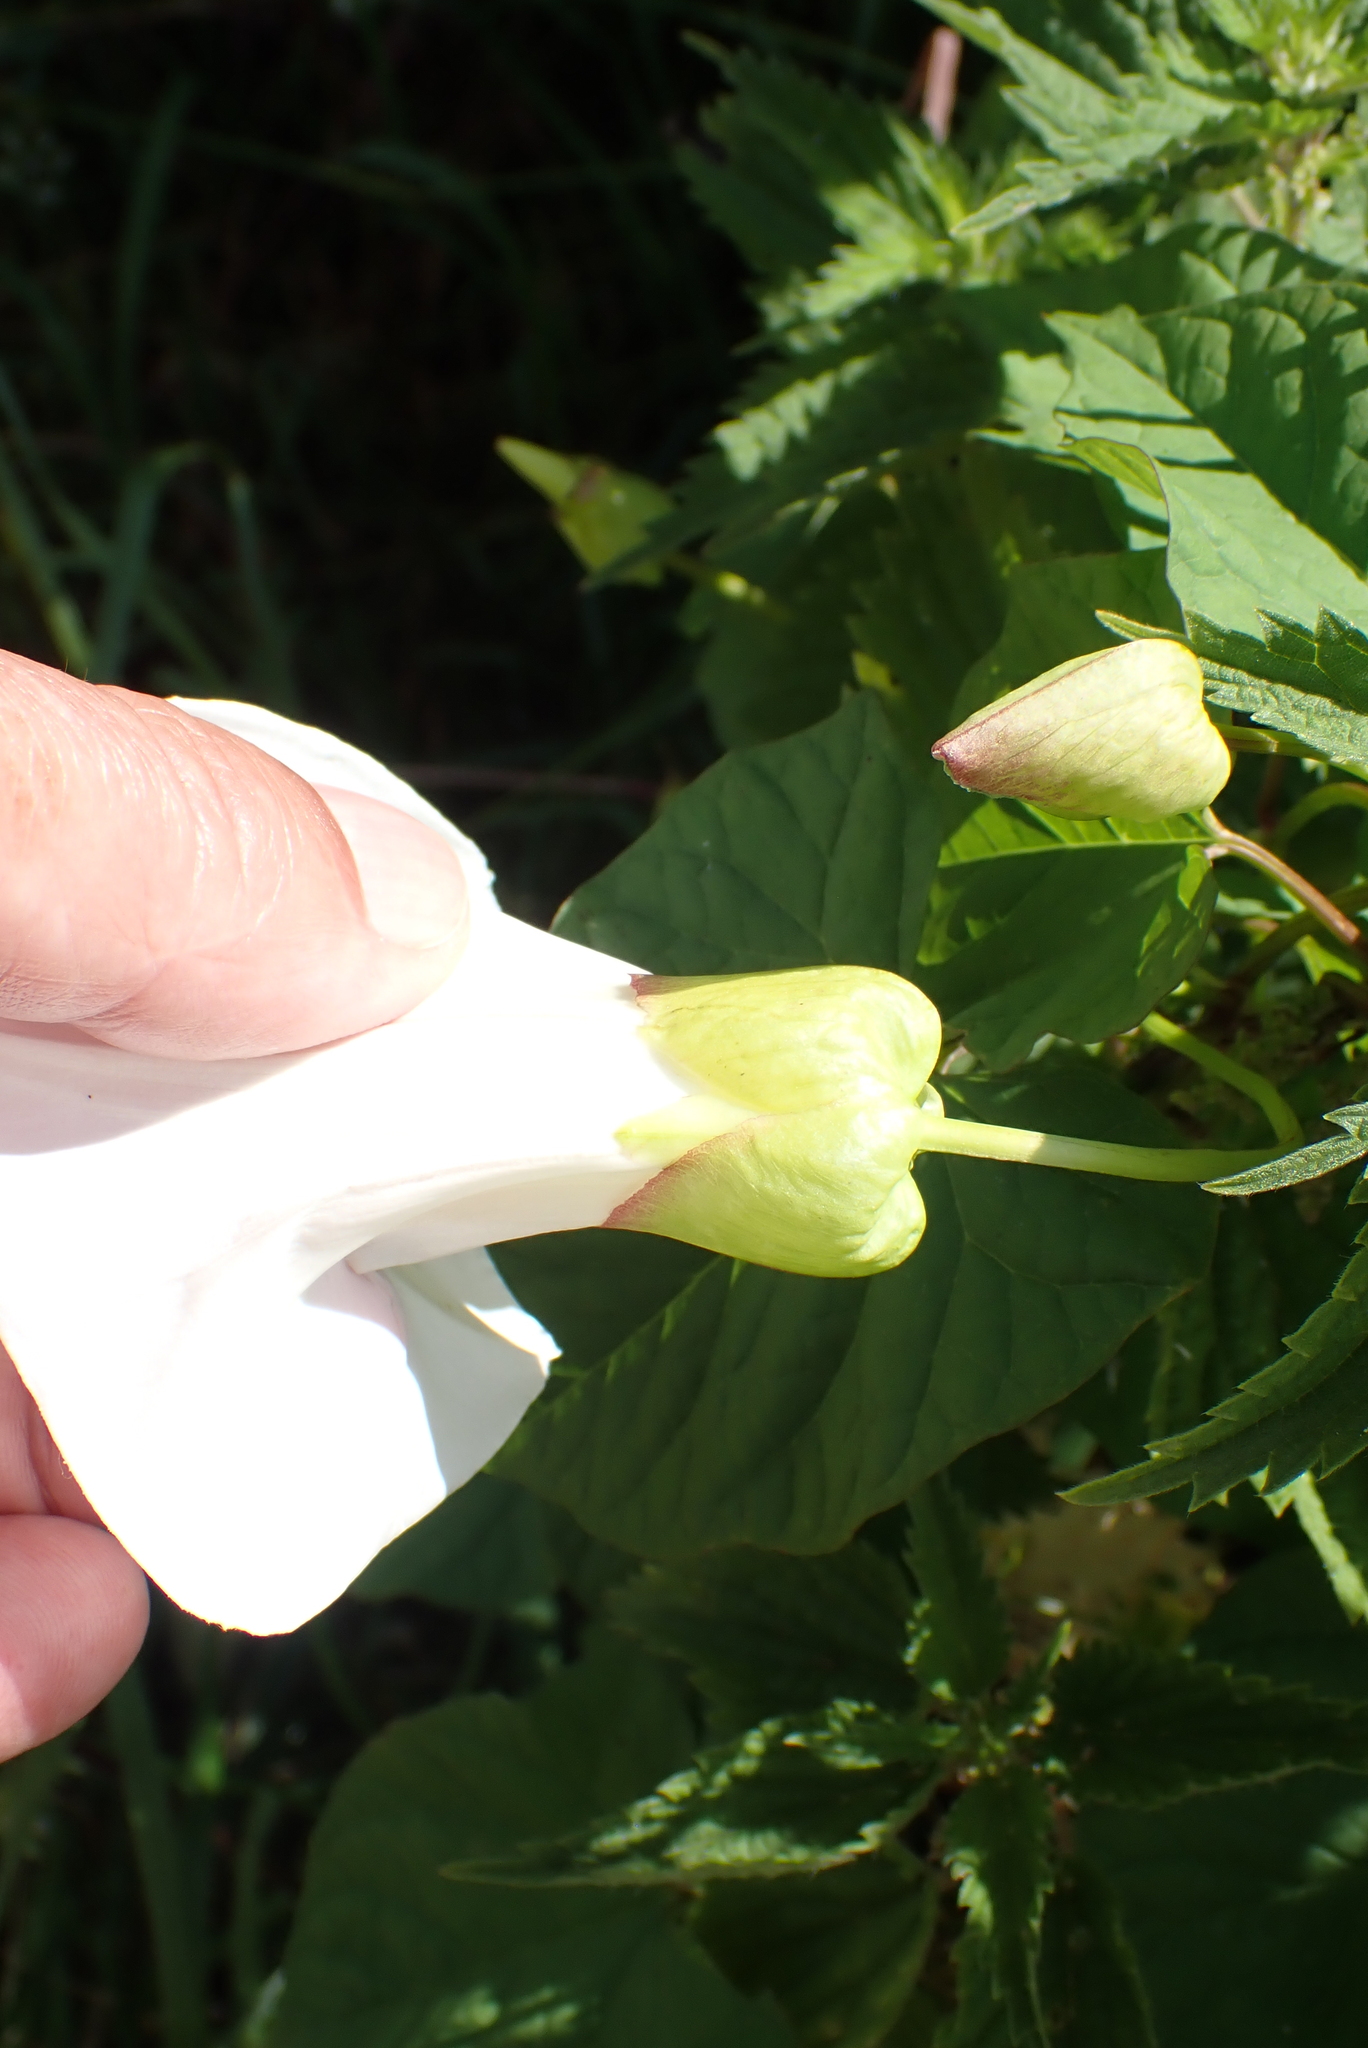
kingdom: Plantae
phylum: Tracheophyta
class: Magnoliopsida
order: Solanales
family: Convolvulaceae
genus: Calystegia
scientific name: Calystegia silvatica
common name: Large bindweed
